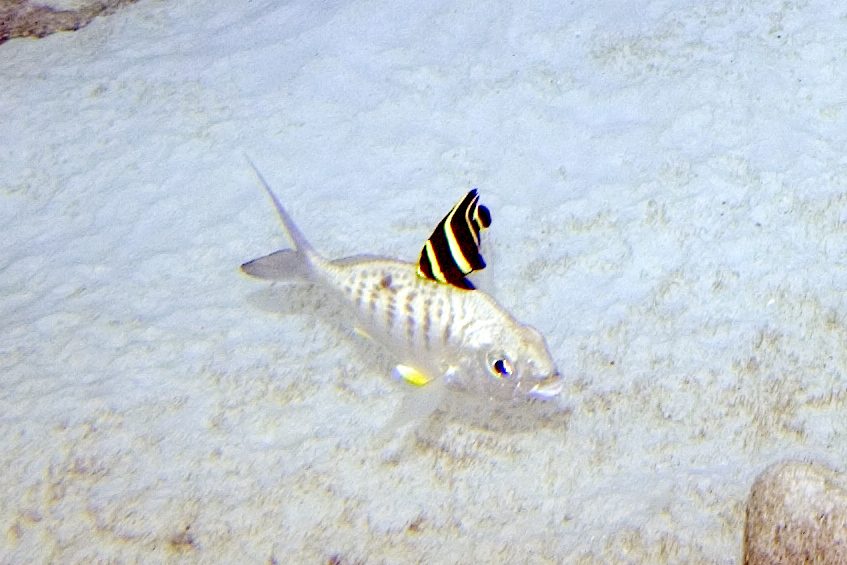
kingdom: Animalia
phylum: Chordata
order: Perciformes
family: Gerreidae
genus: Gerres
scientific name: Gerres cinereus
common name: Hedow
